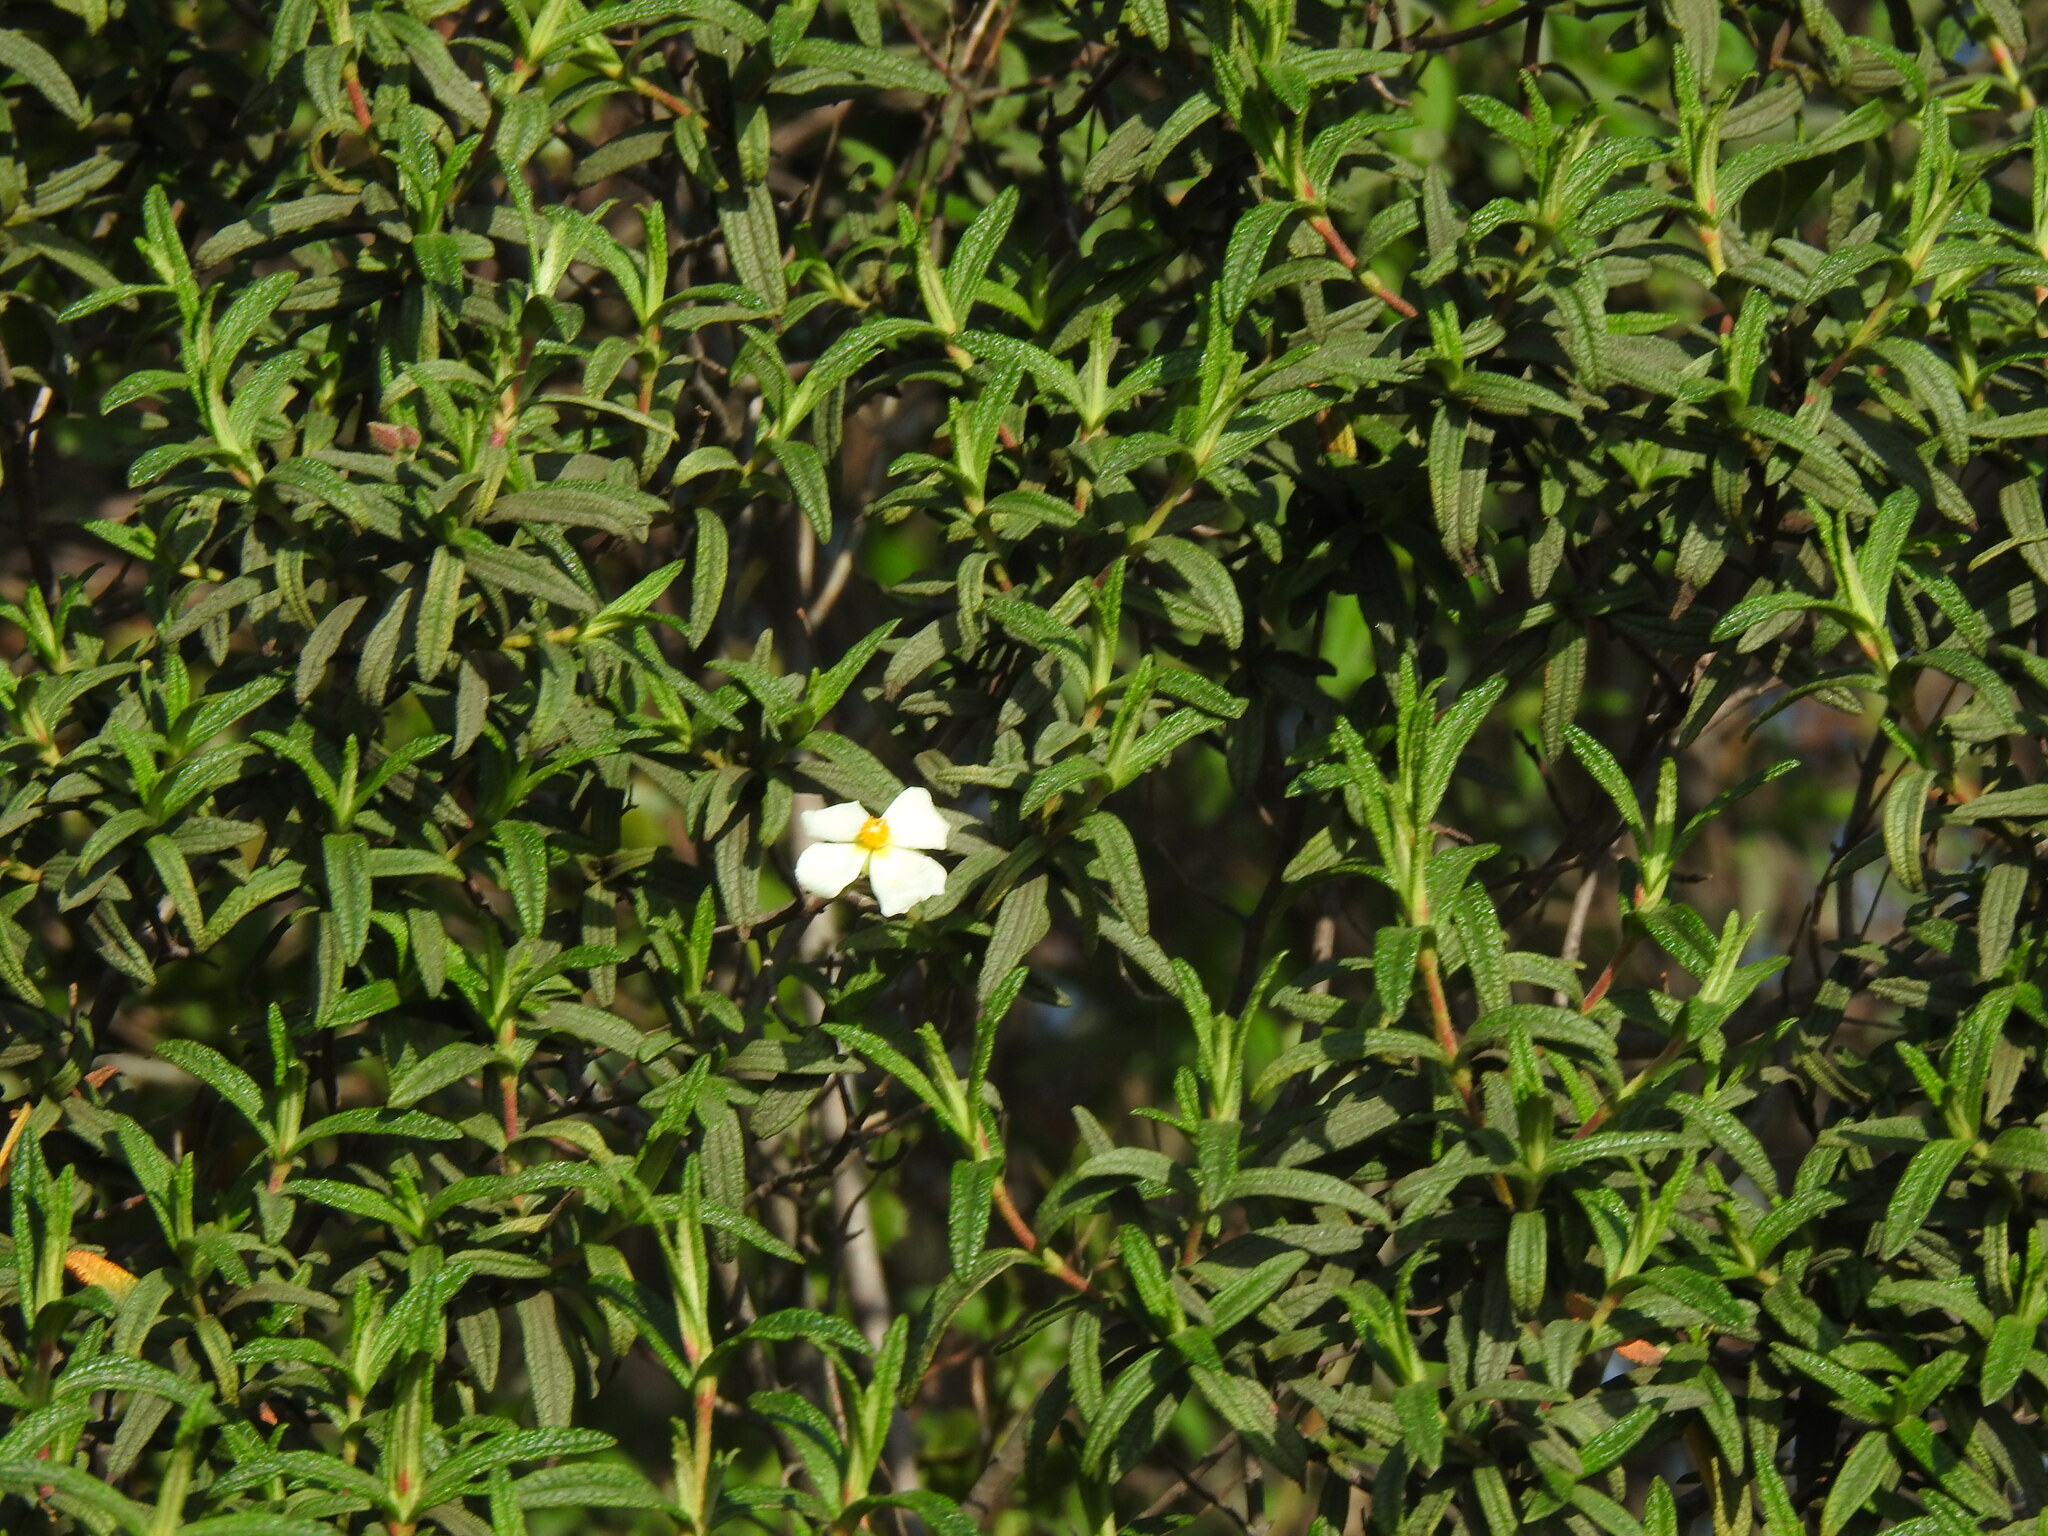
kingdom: Plantae
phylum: Tracheophyta
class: Magnoliopsida
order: Malvales
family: Cistaceae
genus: Cistus
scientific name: Cistus monspeliensis
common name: Montpelier cistus
